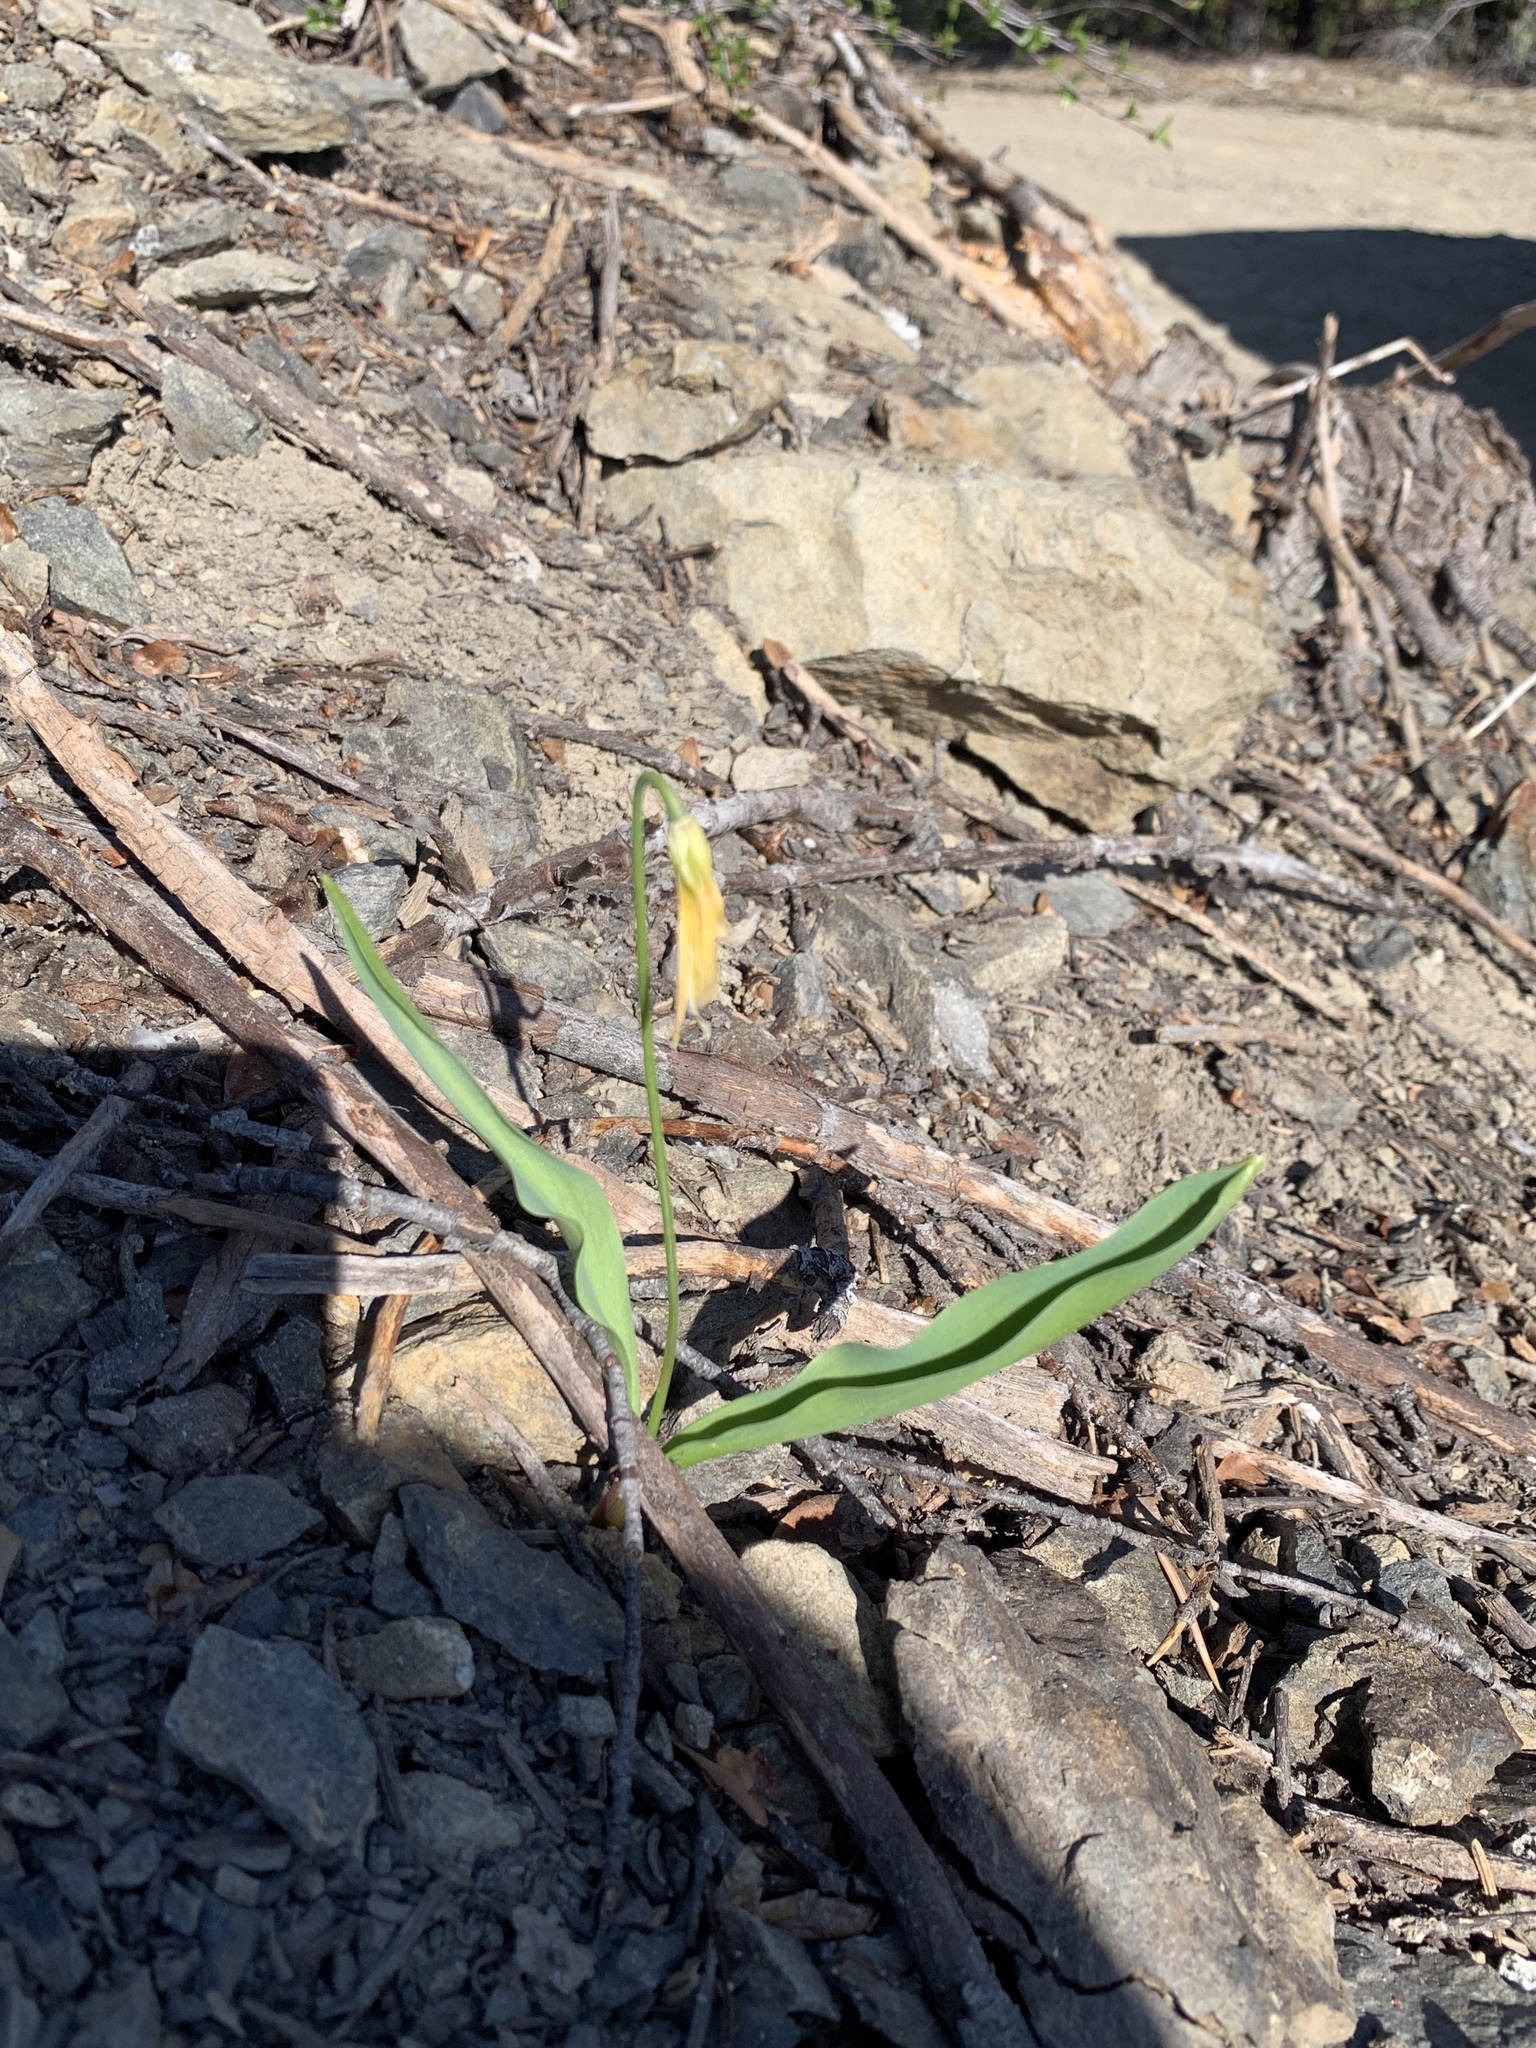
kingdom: Plantae
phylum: Tracheophyta
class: Liliopsida
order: Liliales
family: Liliaceae
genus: Erythronium
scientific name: Erythronium grandiflorum
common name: Avalanche-lily
